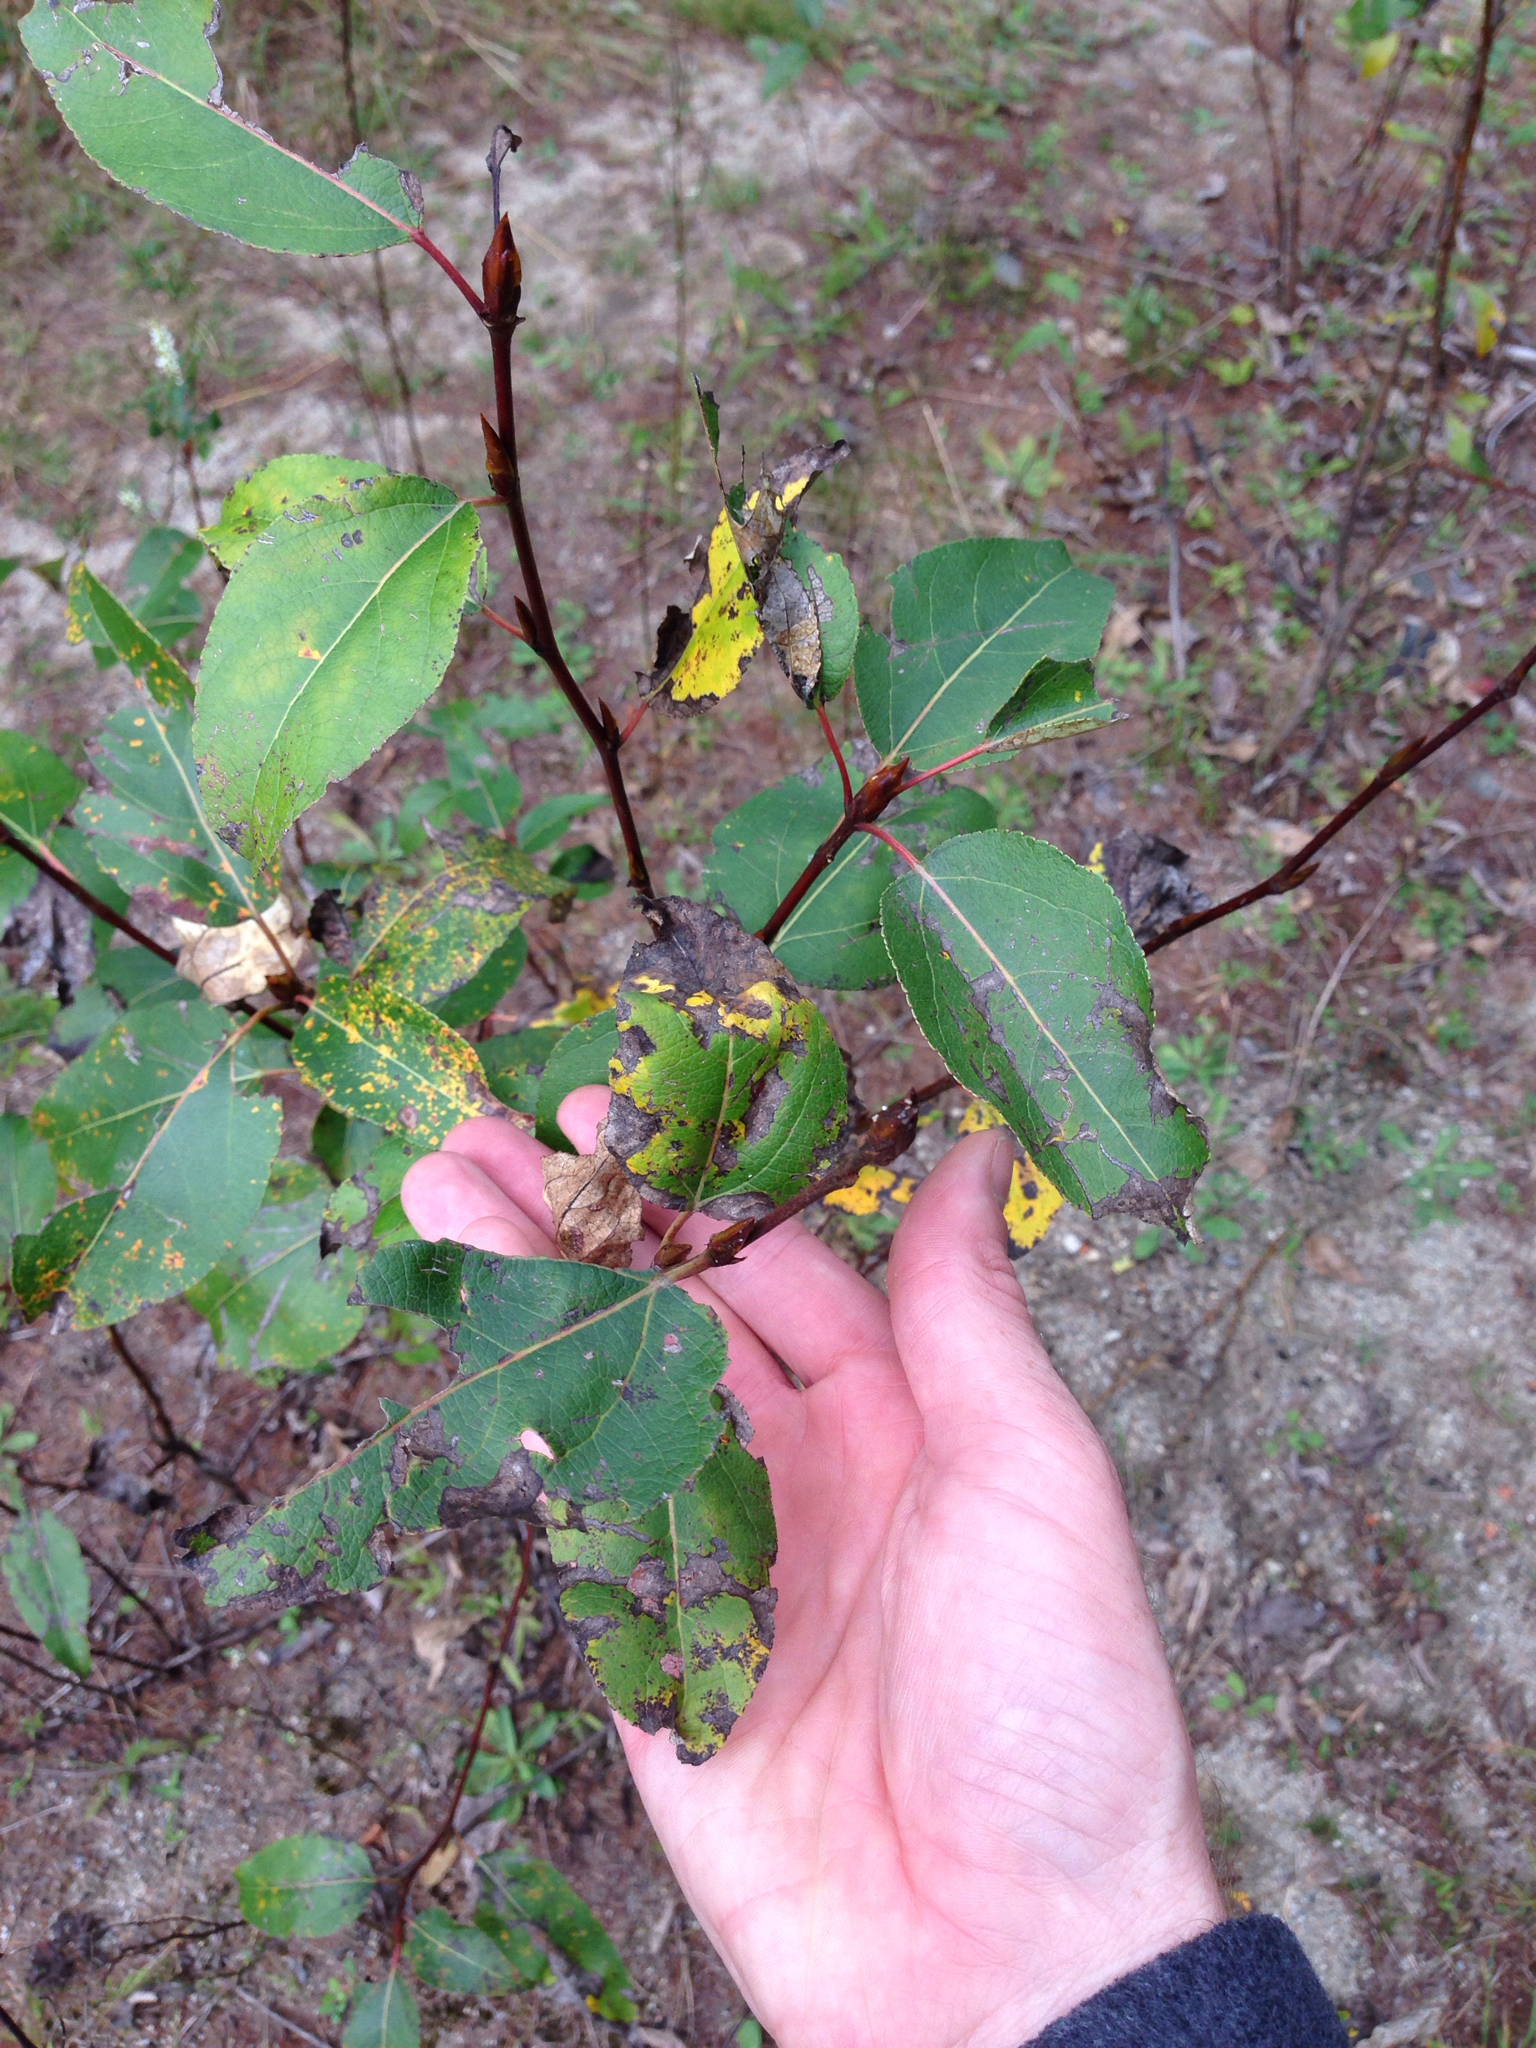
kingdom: Plantae
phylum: Tracheophyta
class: Magnoliopsida
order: Malpighiales
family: Salicaceae
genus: Populus
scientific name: Populus balsamifera
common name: Balsam poplar
